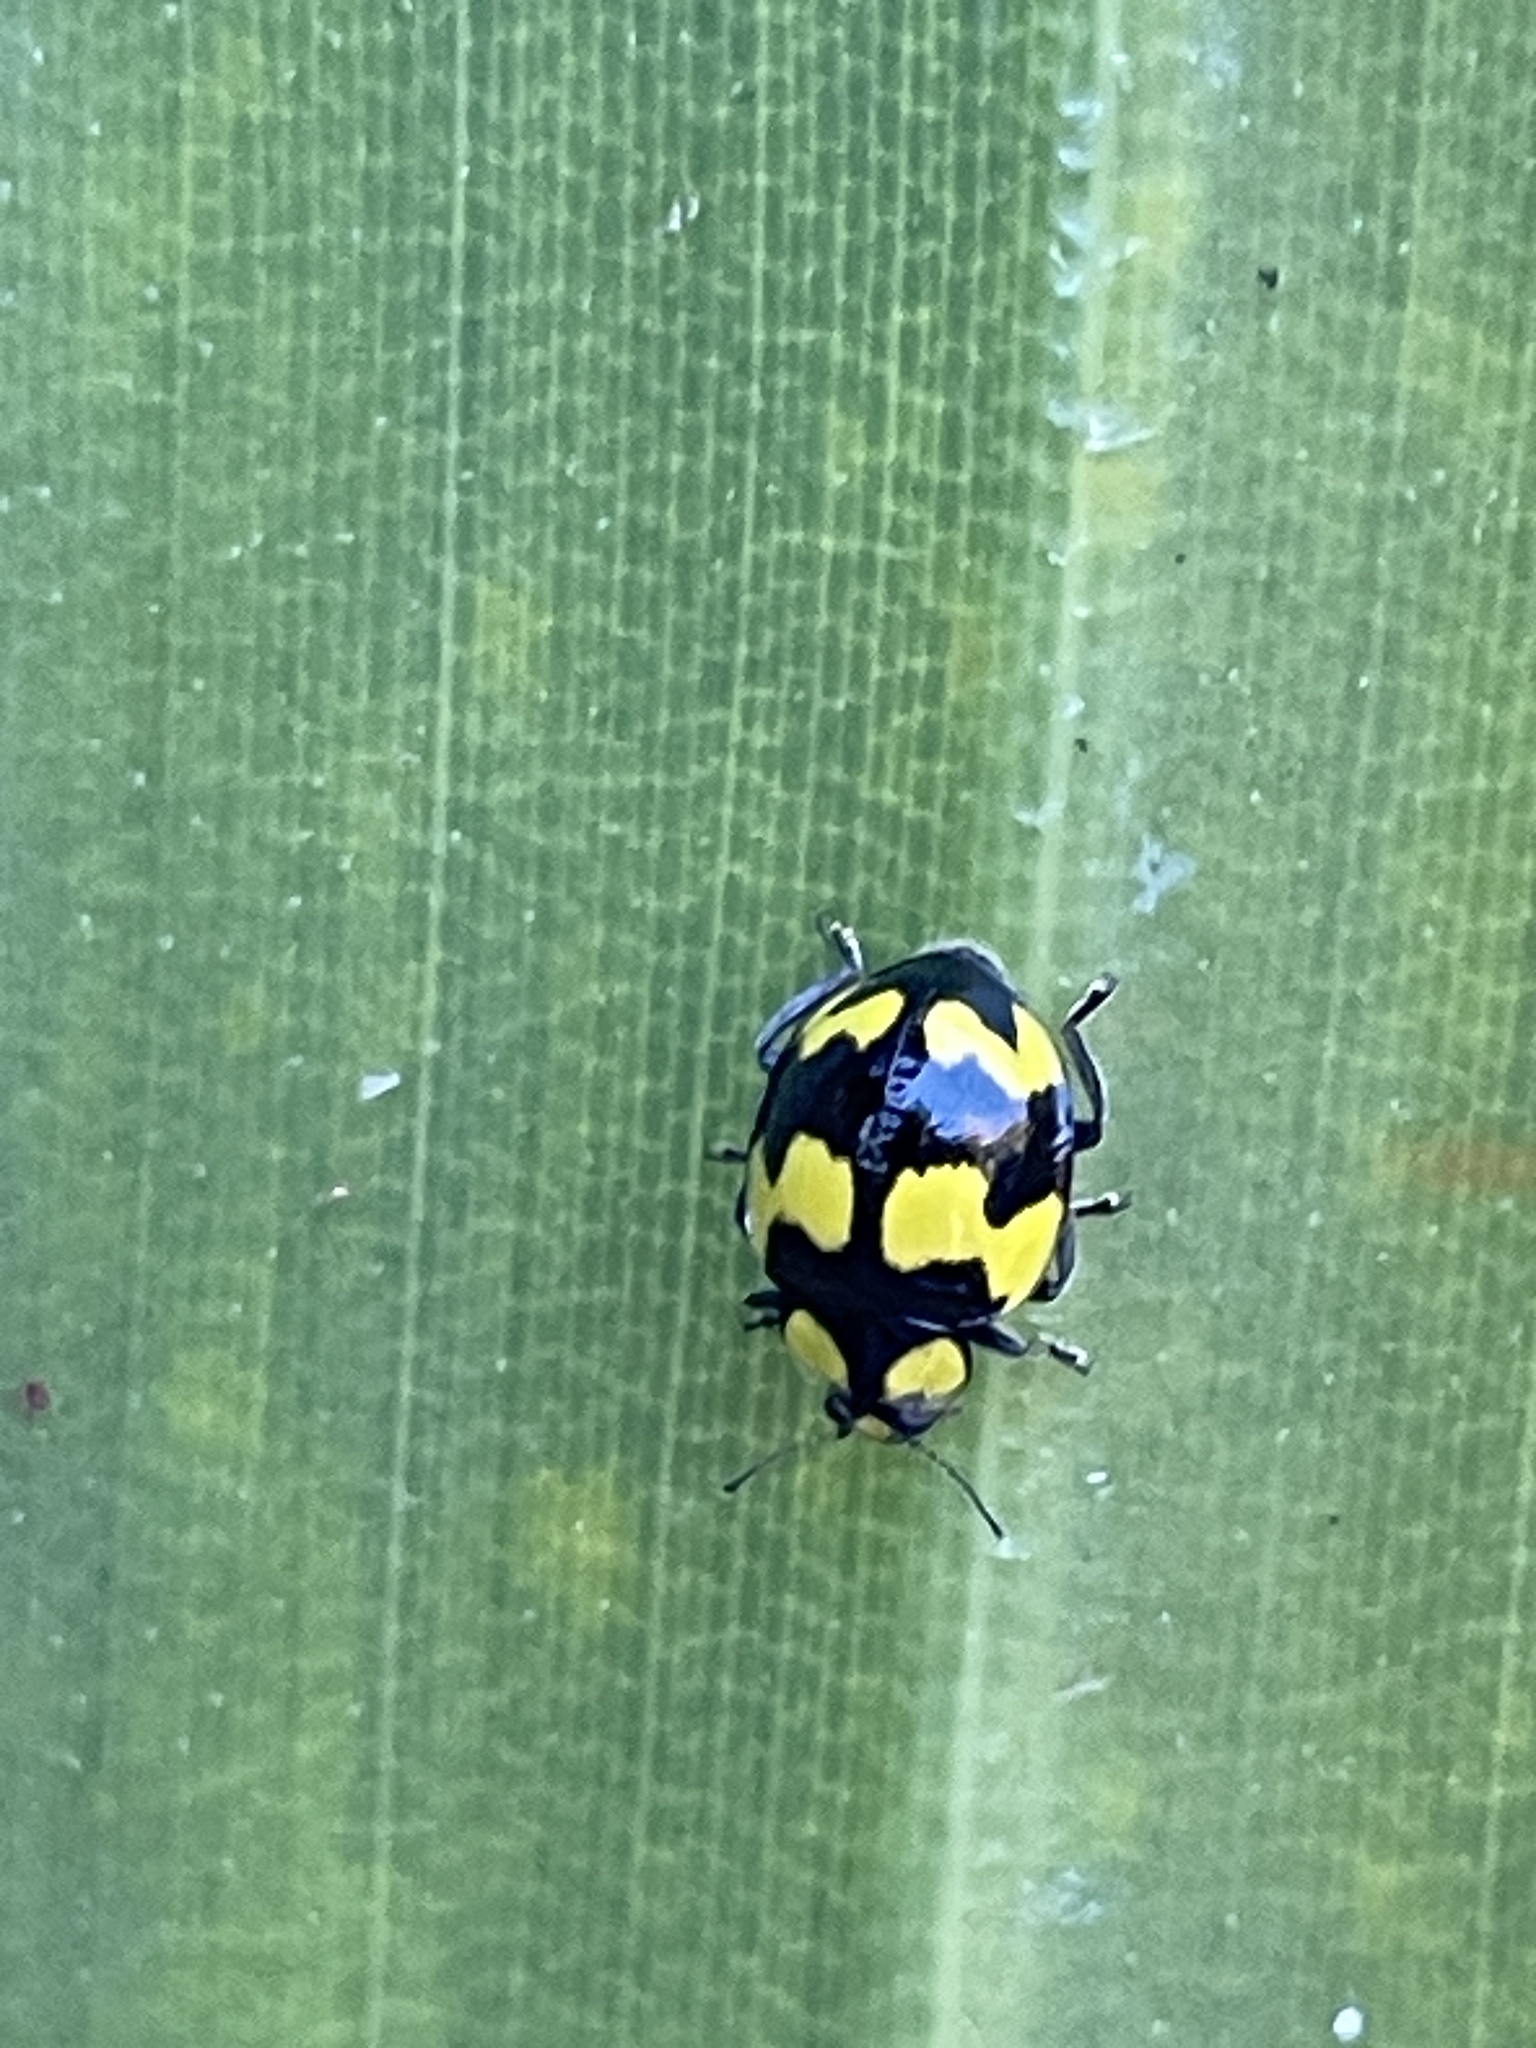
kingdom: Animalia
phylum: Arthropoda
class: Insecta
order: Coleoptera
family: Coccinellidae
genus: Illeis
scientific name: Illeis galbula
